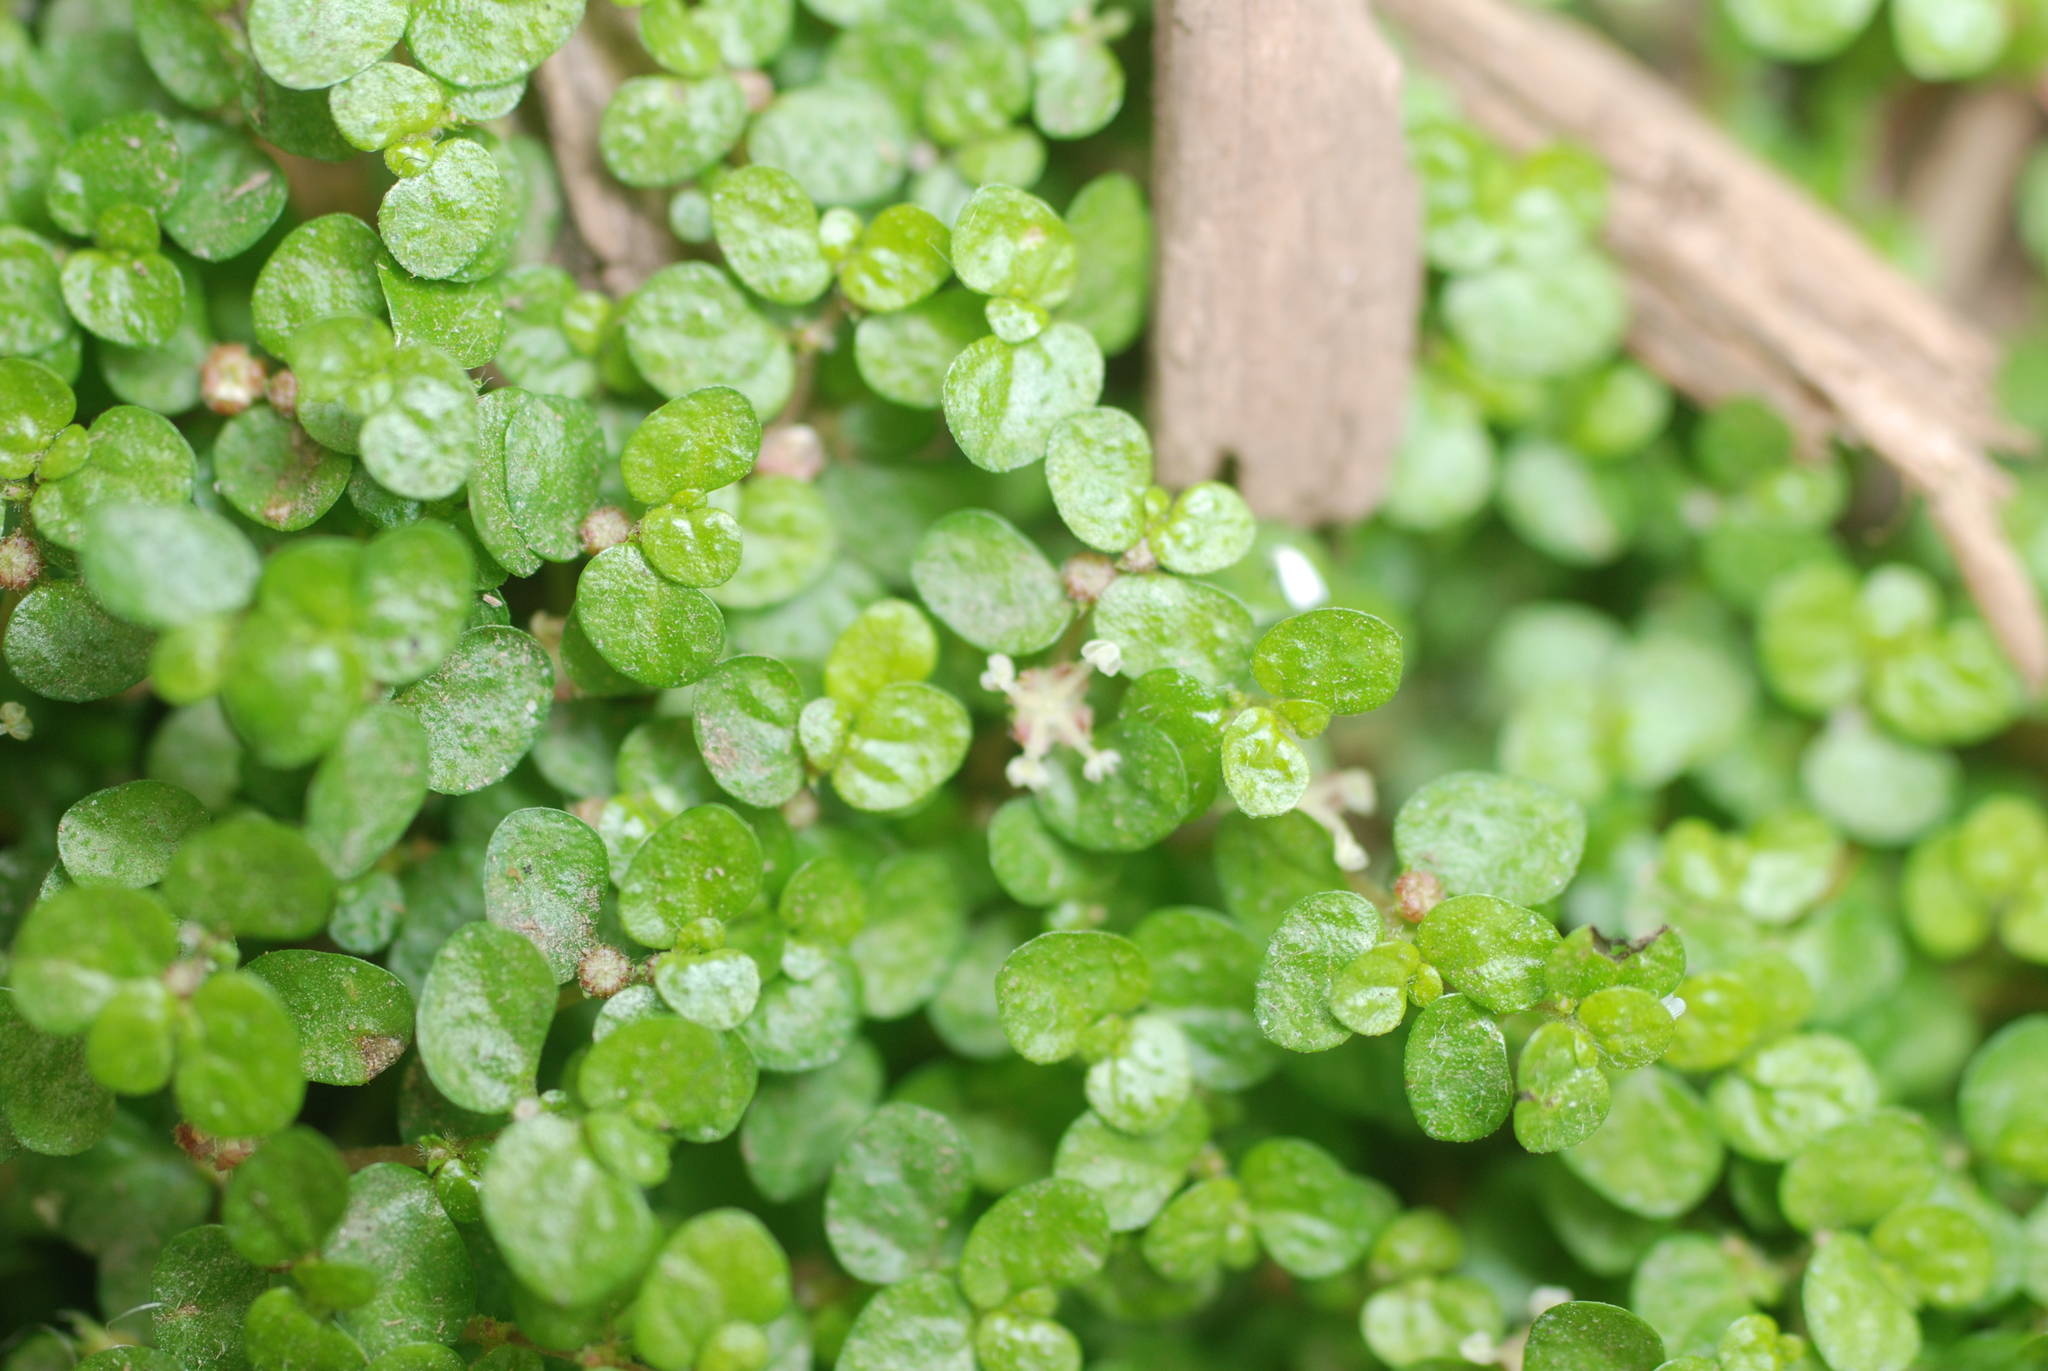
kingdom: Plantae
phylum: Tracheophyta
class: Magnoliopsida
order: Rosales
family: Urticaceae
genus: Soleirolia
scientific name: Soleirolia soleirolii
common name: Mind-your-own-business
